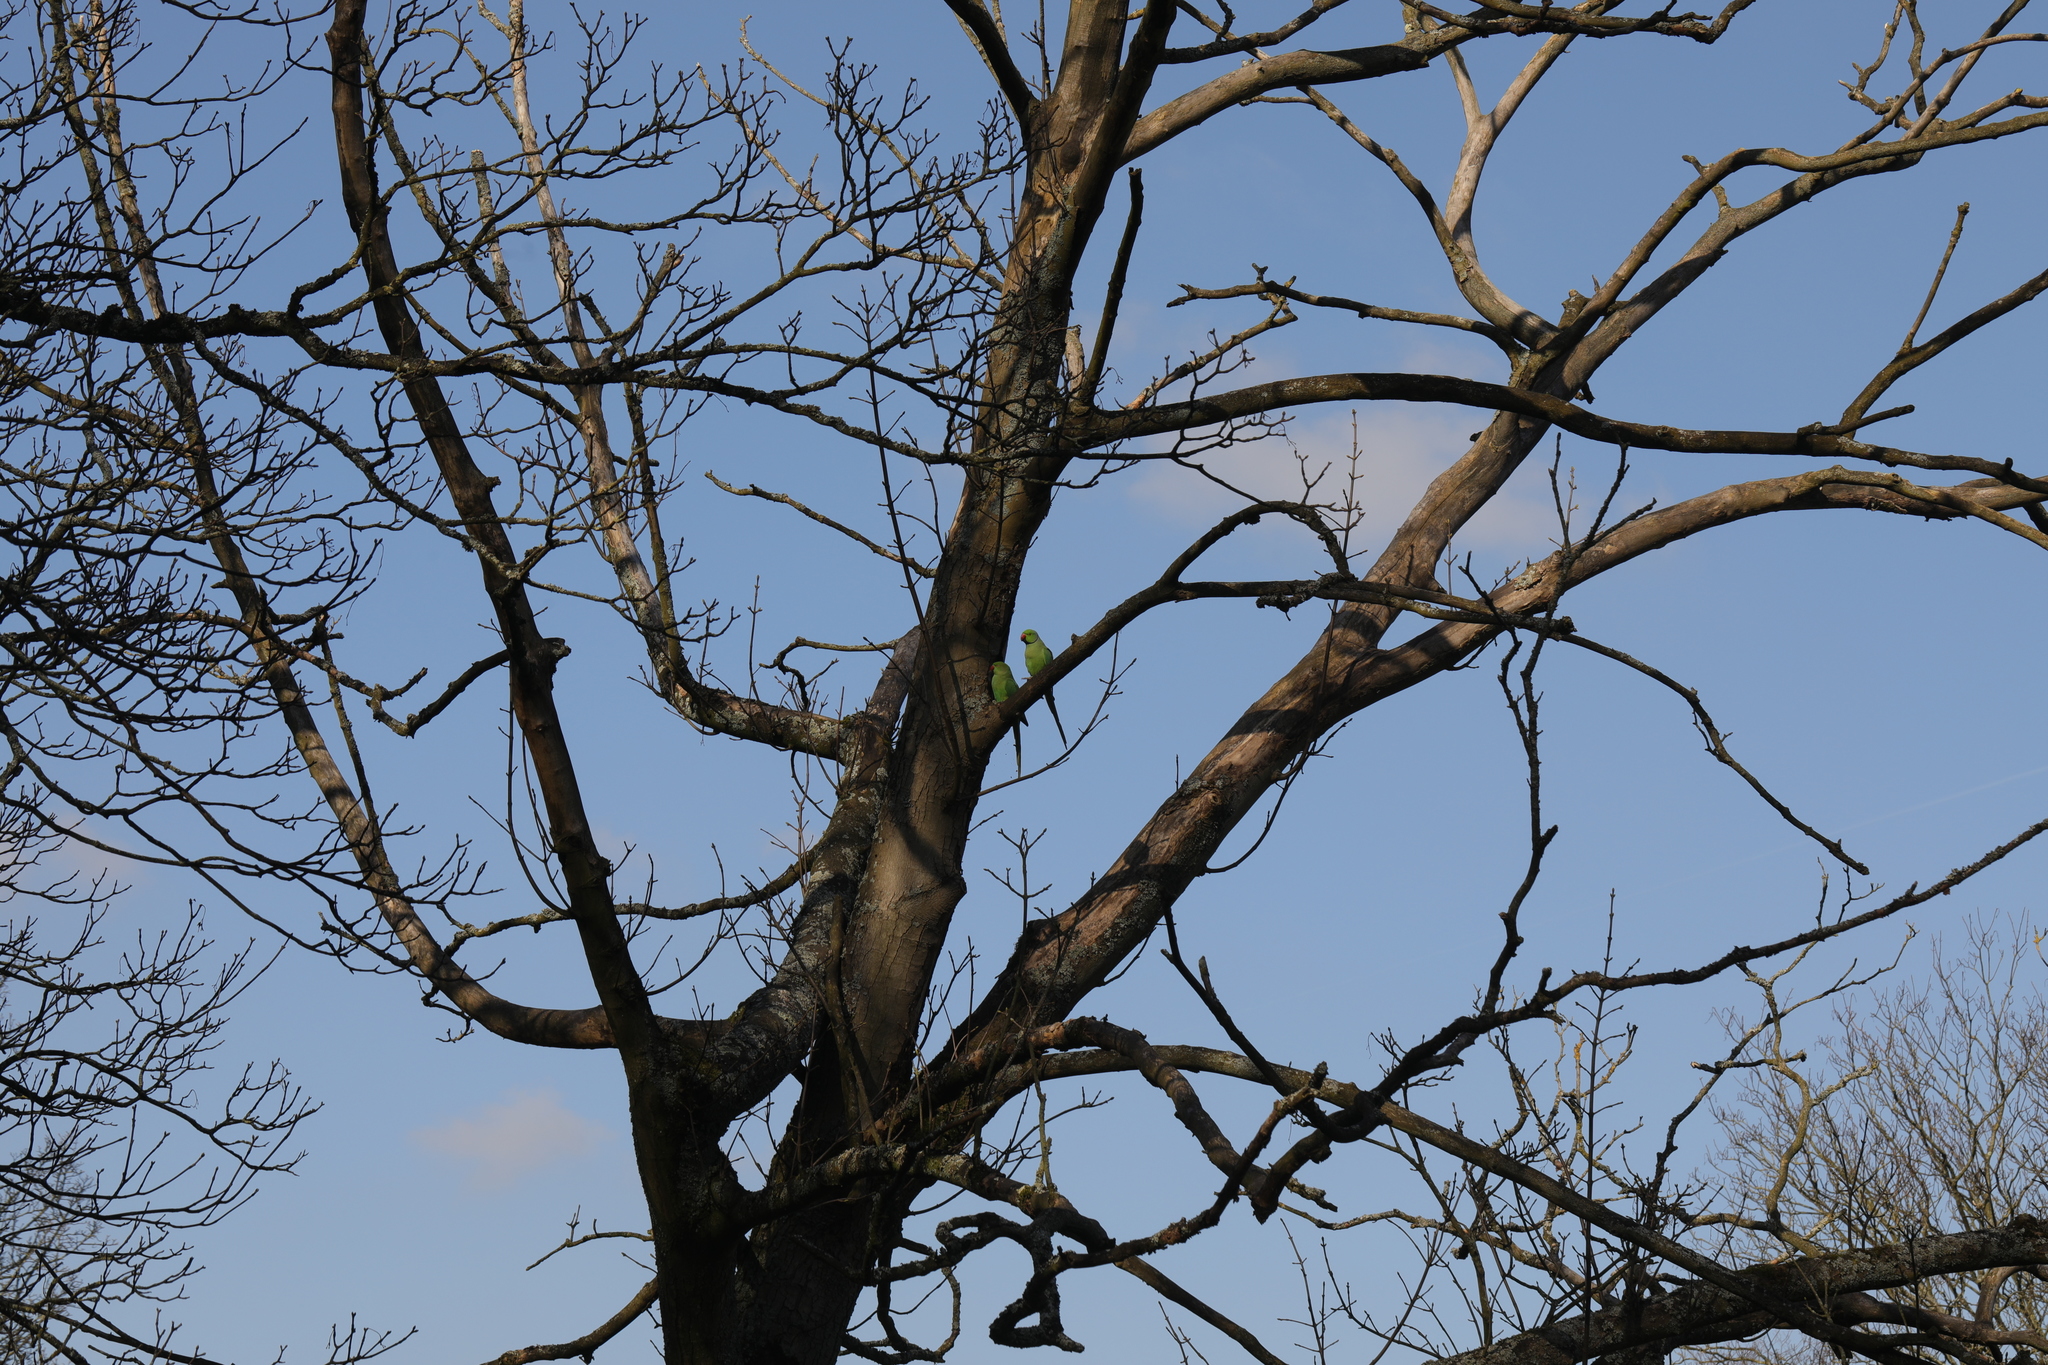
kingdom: Animalia
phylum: Chordata
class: Aves
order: Psittaciformes
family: Psittacidae
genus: Psittacula
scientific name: Psittacula krameri
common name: Rose-ringed parakeet
